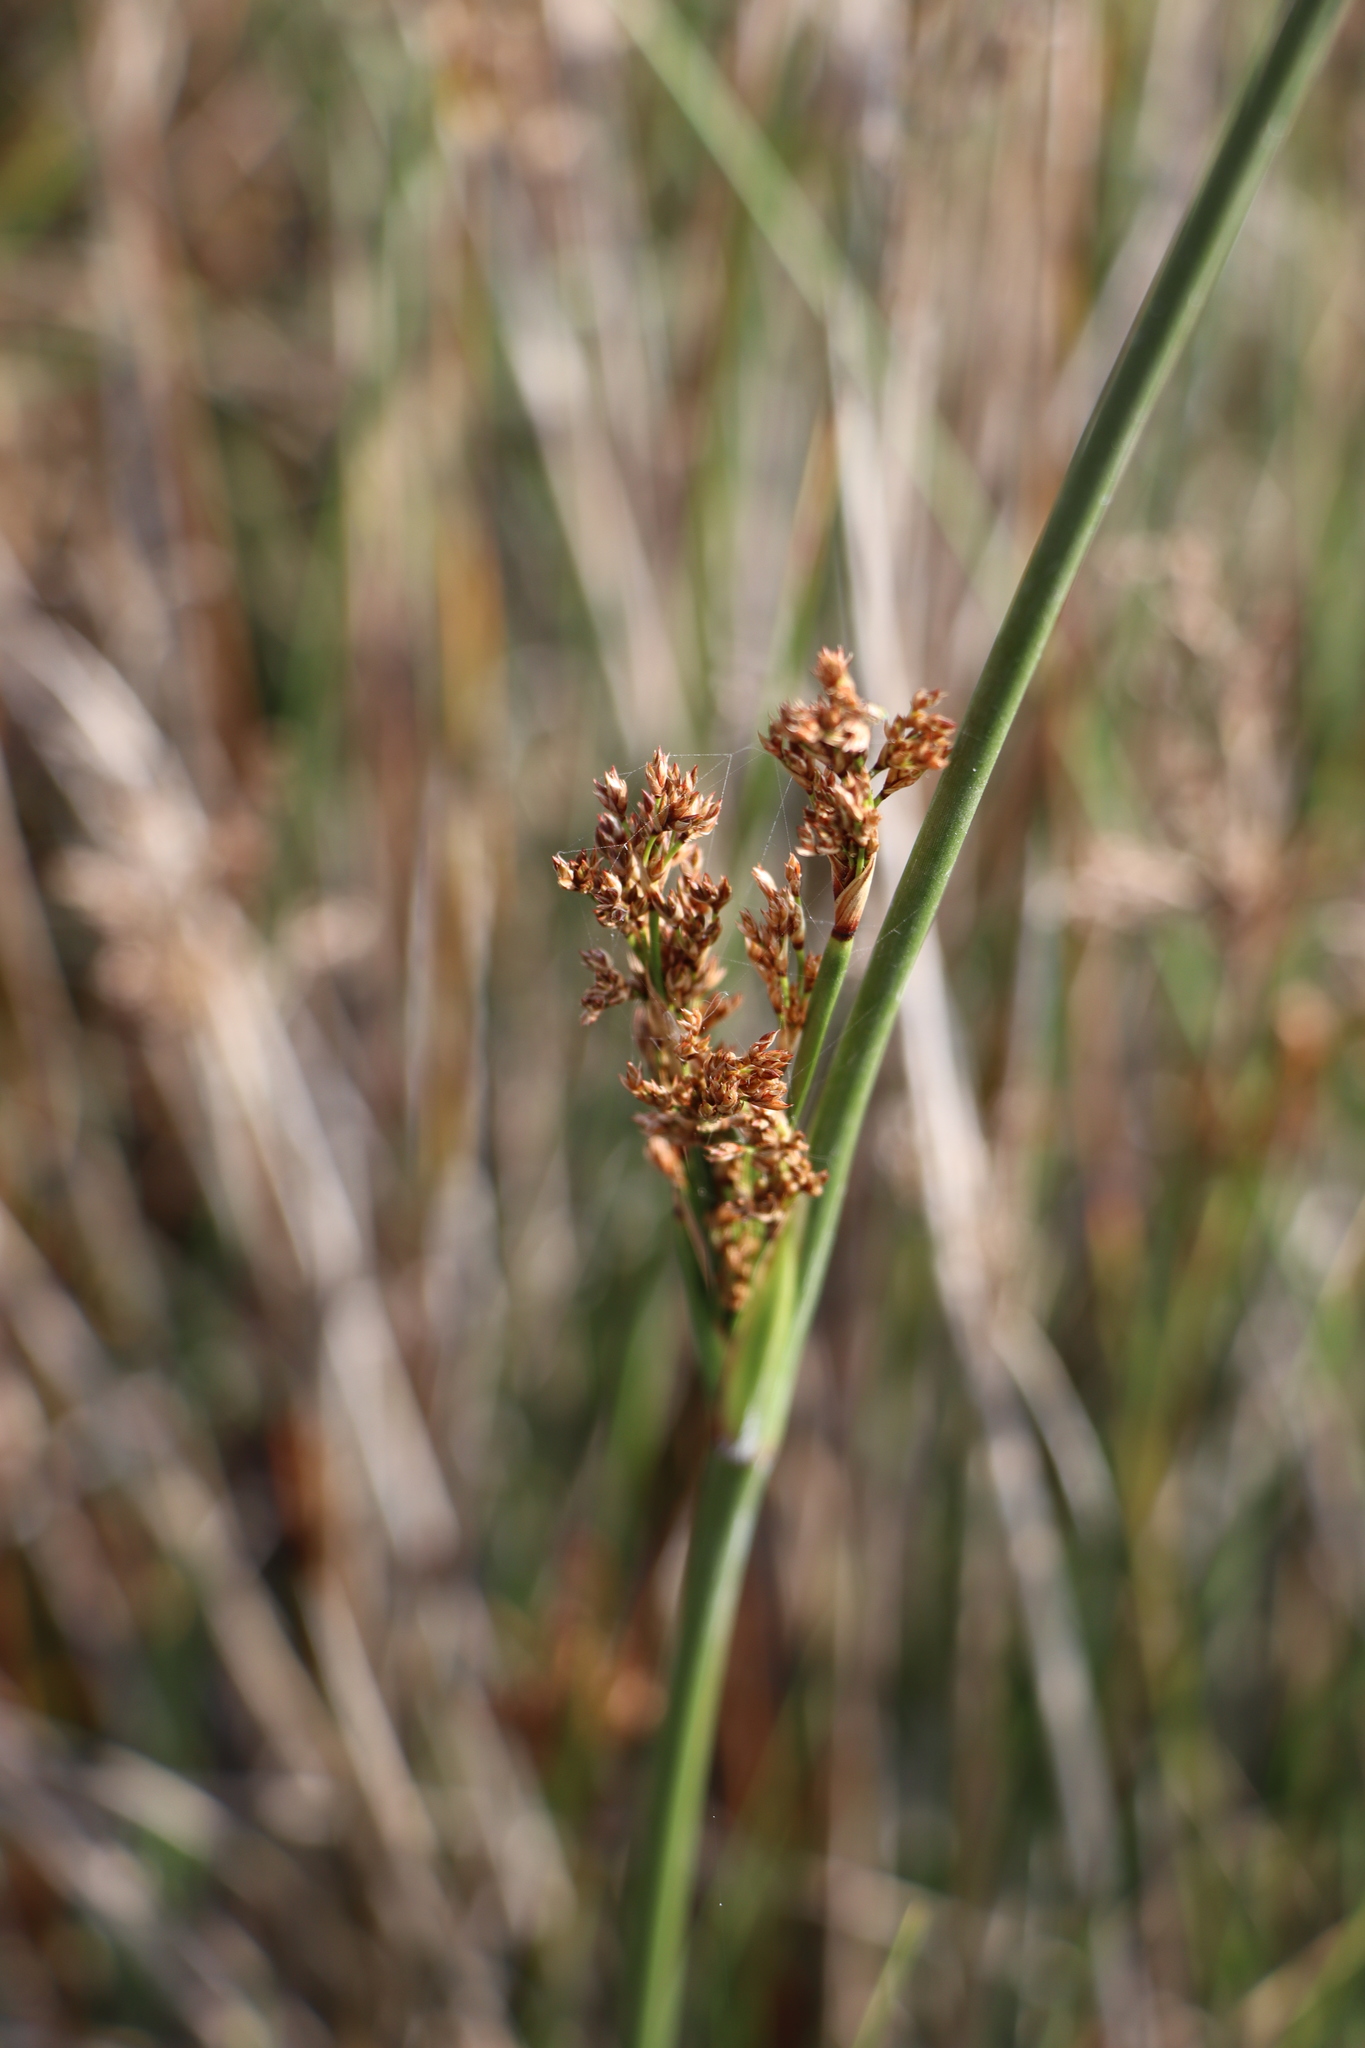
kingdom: Plantae
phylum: Tracheophyta
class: Liliopsida
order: Poales
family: Juncaceae
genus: Juncus
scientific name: Juncus kraussii
